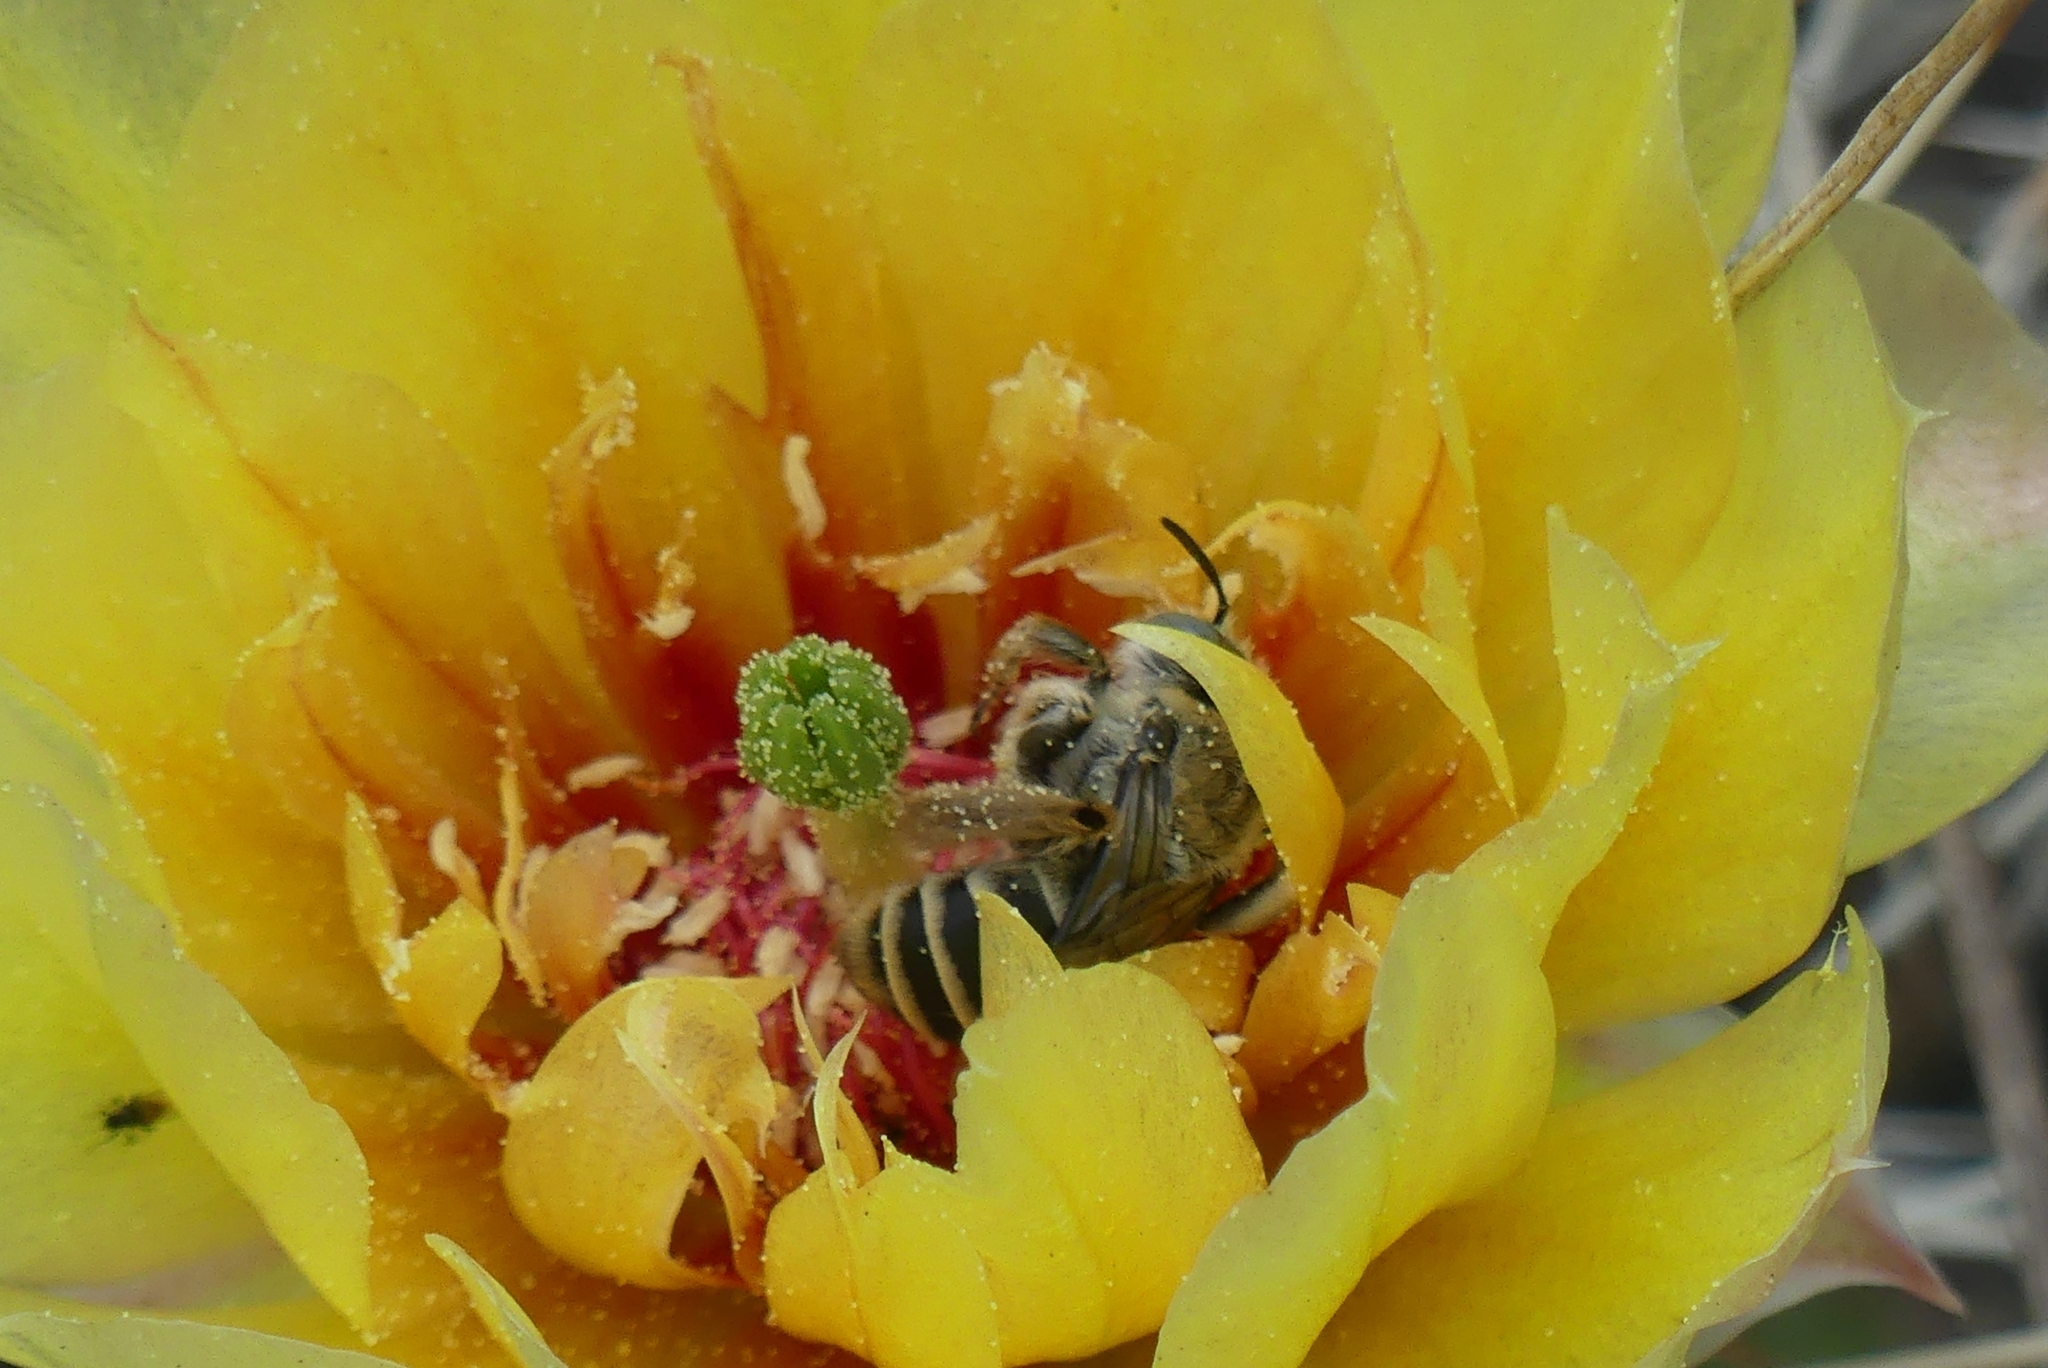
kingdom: Animalia
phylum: Arthropoda
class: Insecta
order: Hymenoptera
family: Apidae
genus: Diadasia
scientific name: Diadasia australis
